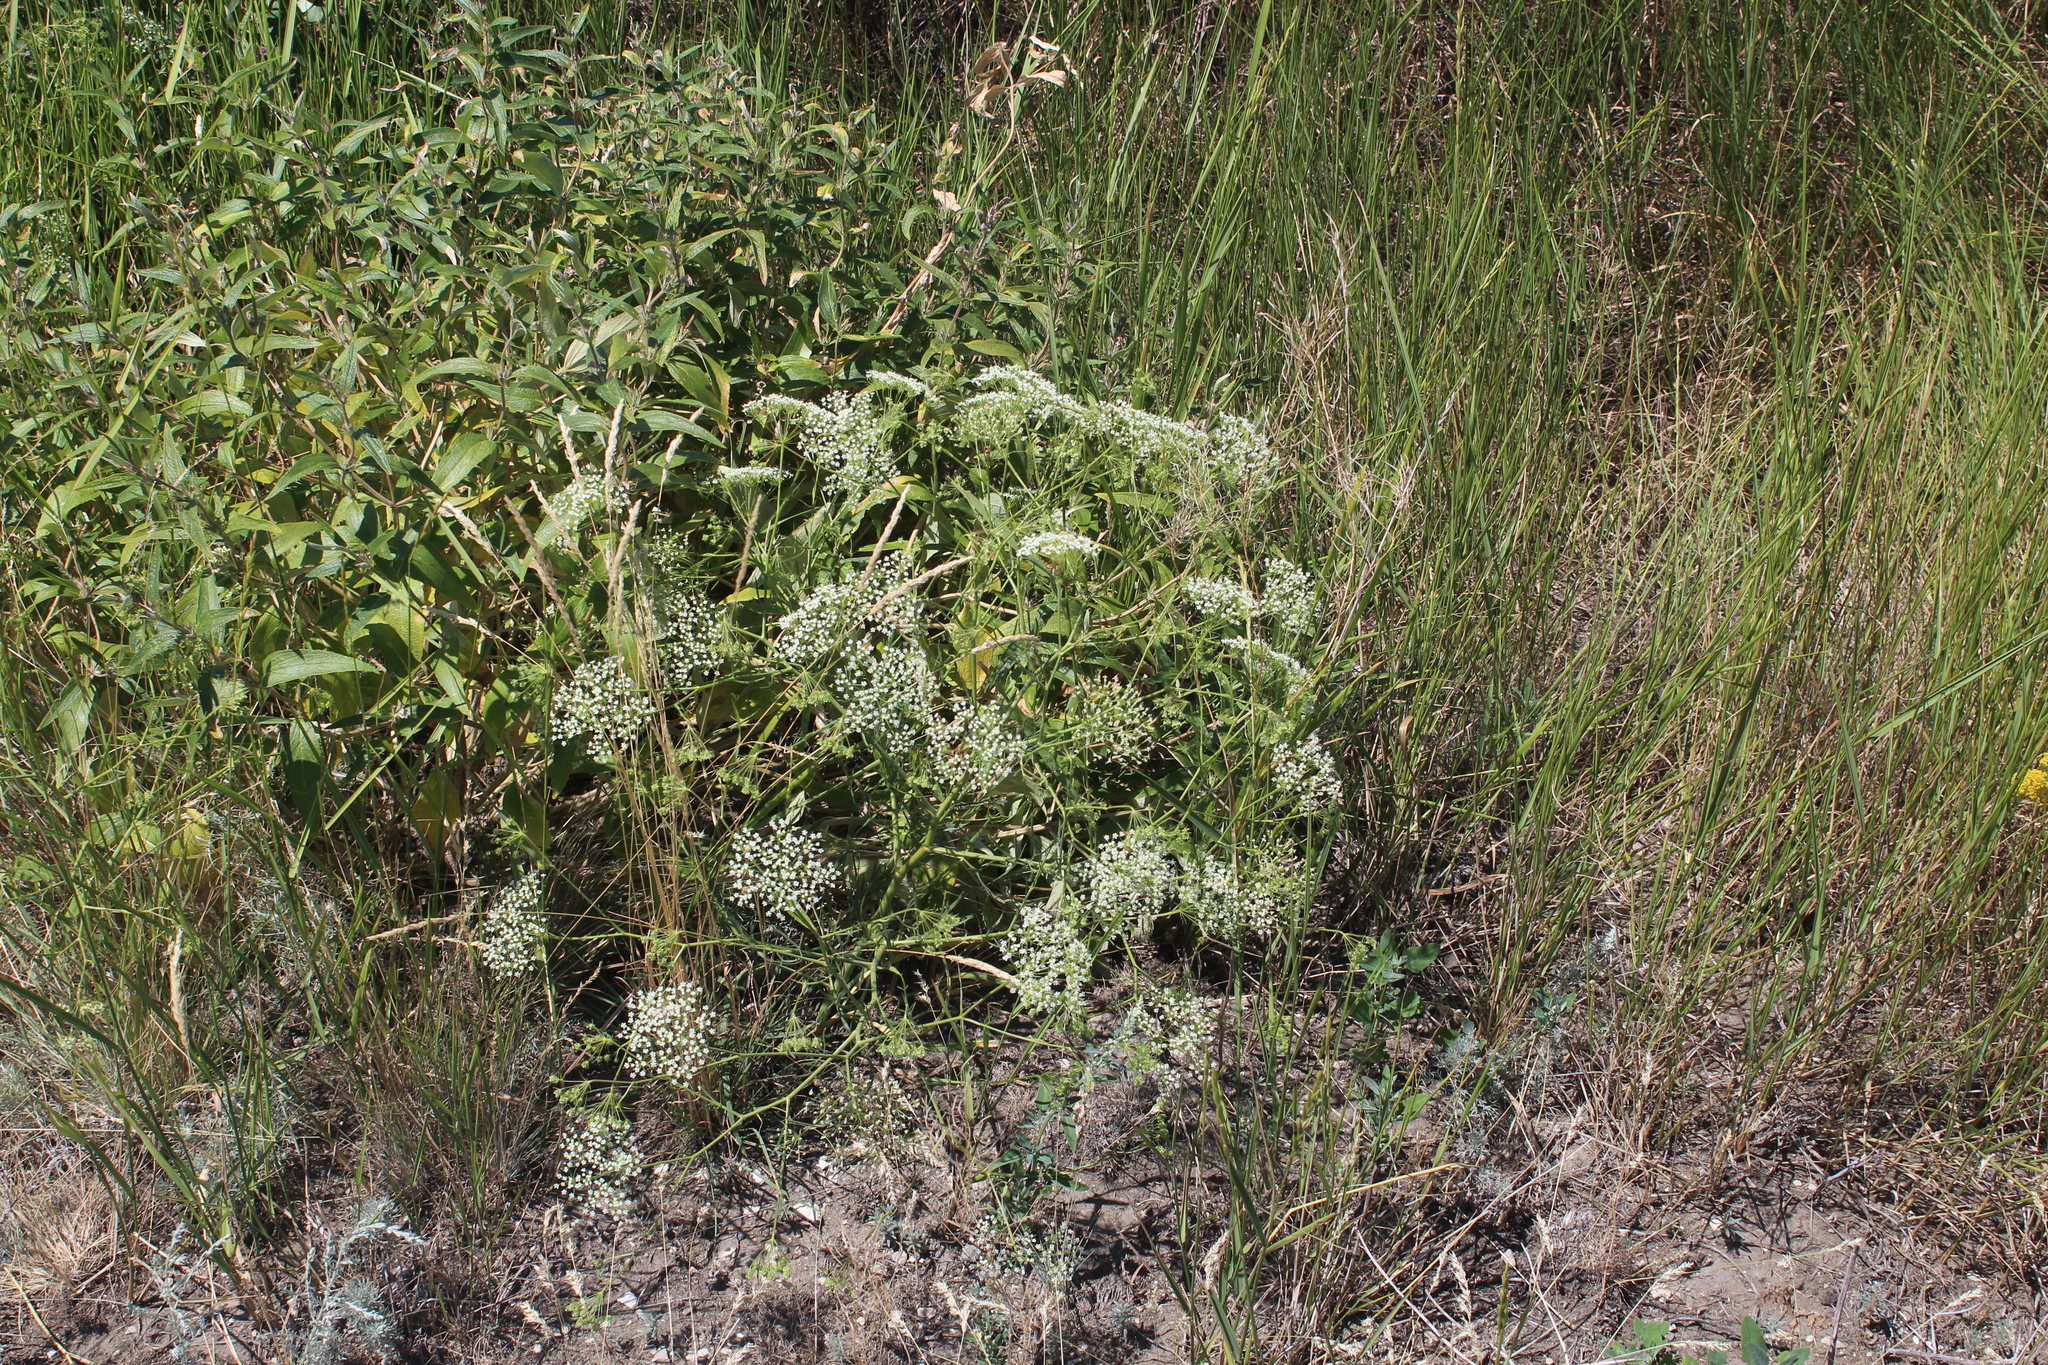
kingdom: Plantae
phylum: Tracheophyta
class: Magnoliopsida
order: Apiales
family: Apiaceae
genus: Falcaria
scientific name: Falcaria vulgaris
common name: Longleaf
